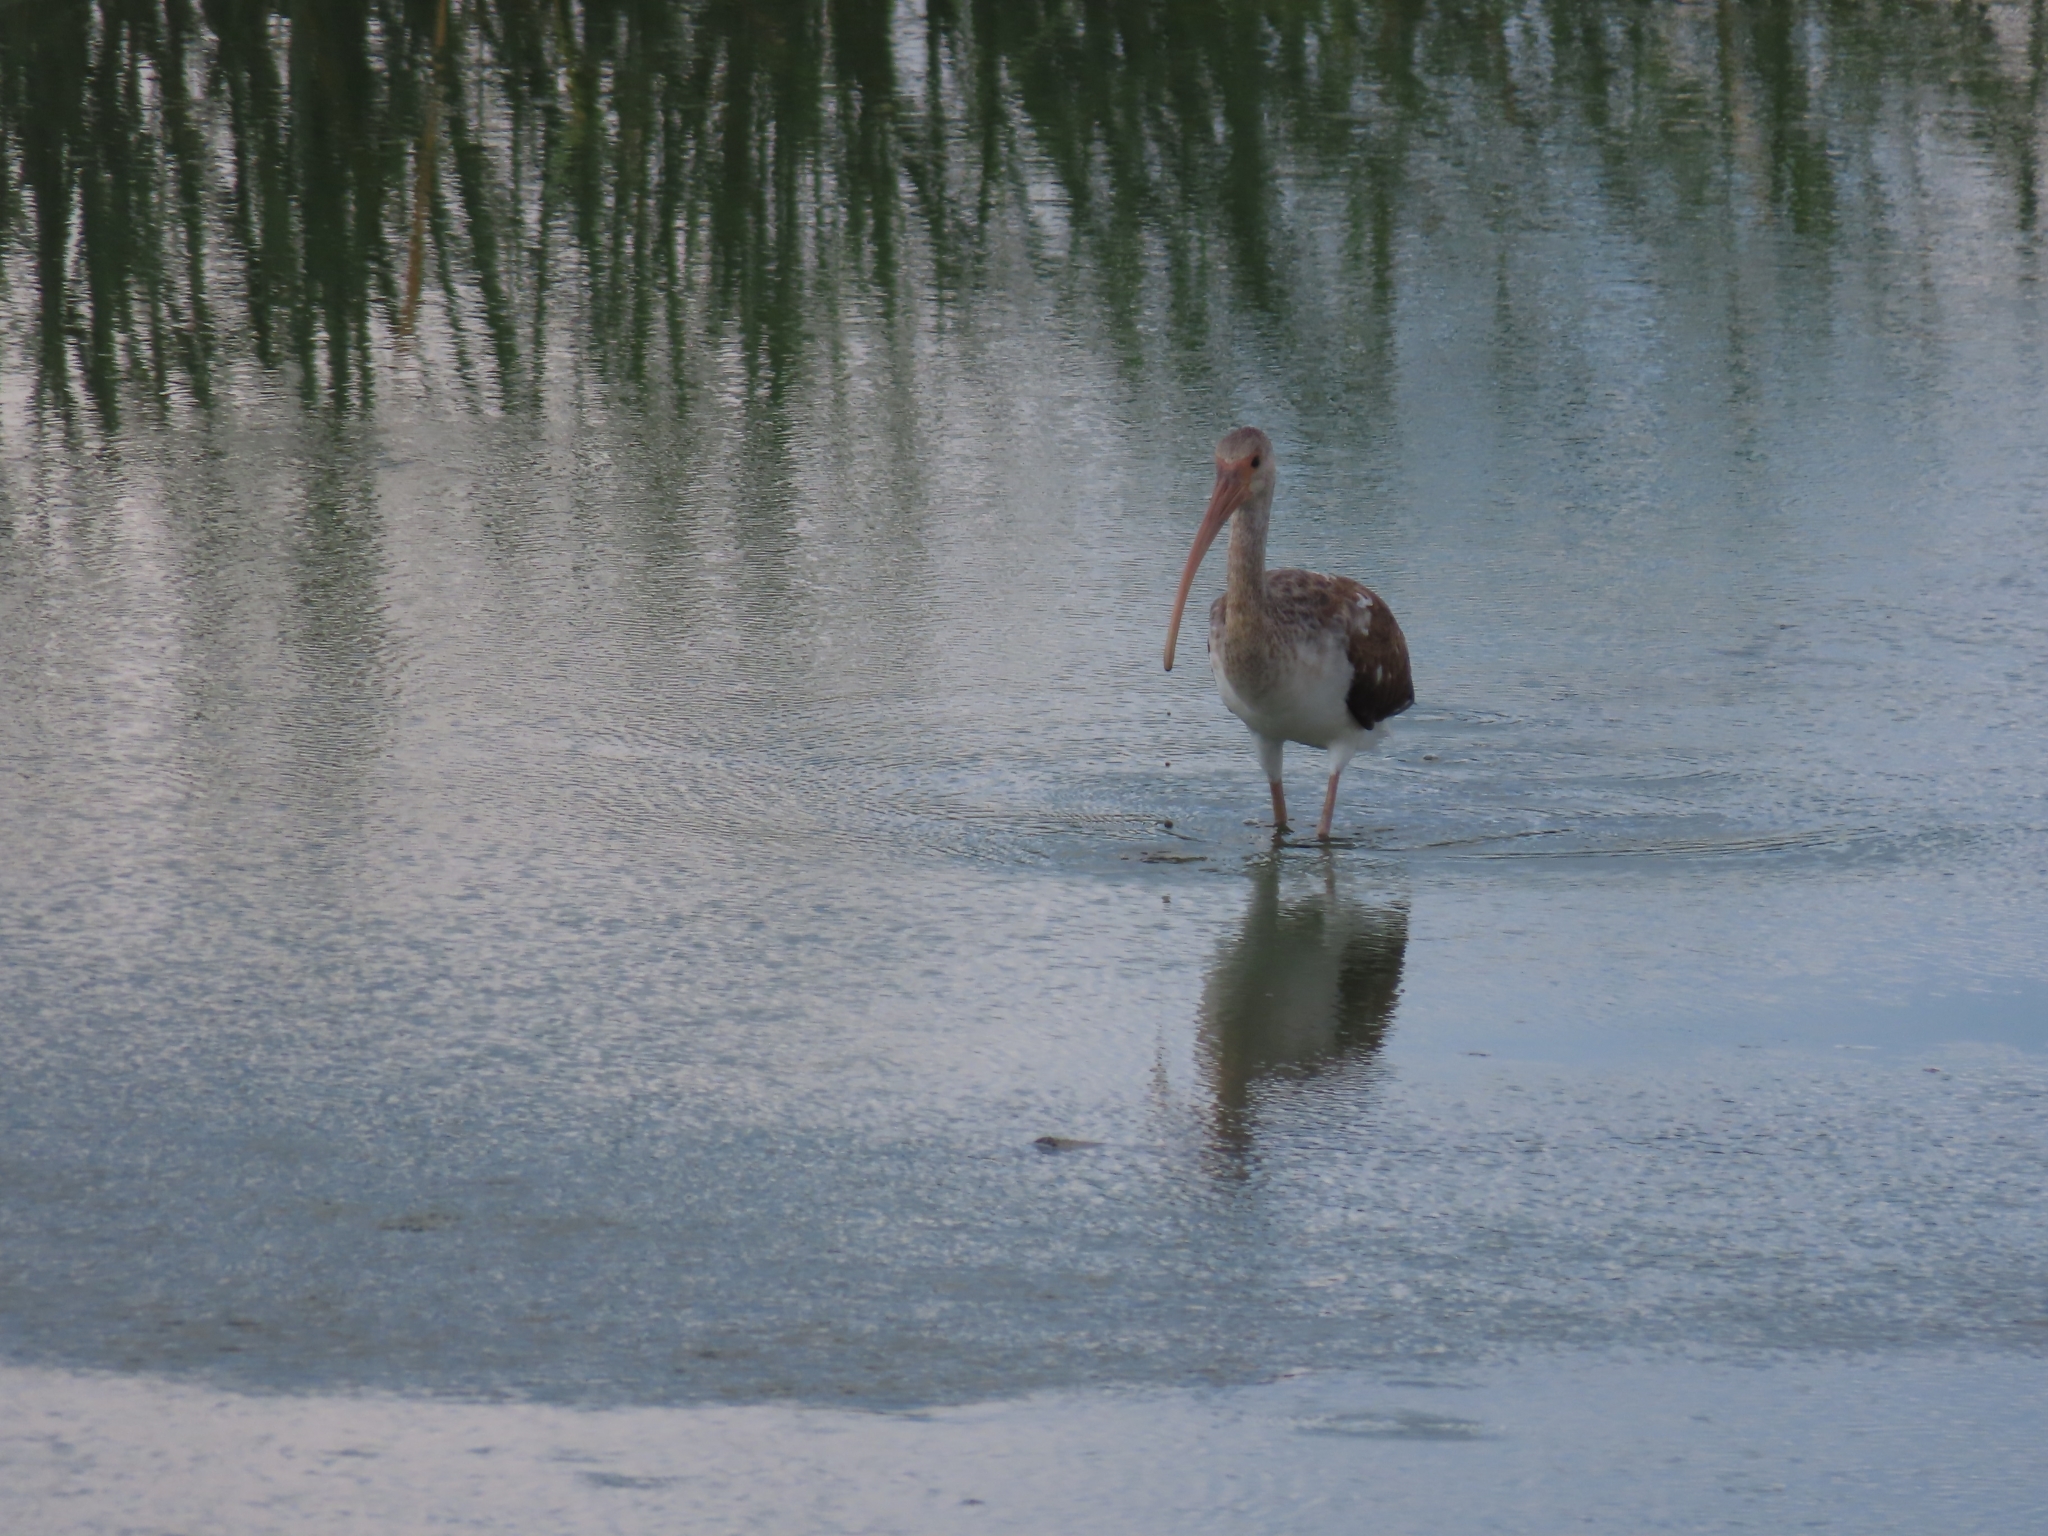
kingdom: Animalia
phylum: Chordata
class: Aves
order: Pelecaniformes
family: Threskiornithidae
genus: Eudocimus
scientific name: Eudocimus albus
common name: White ibis
